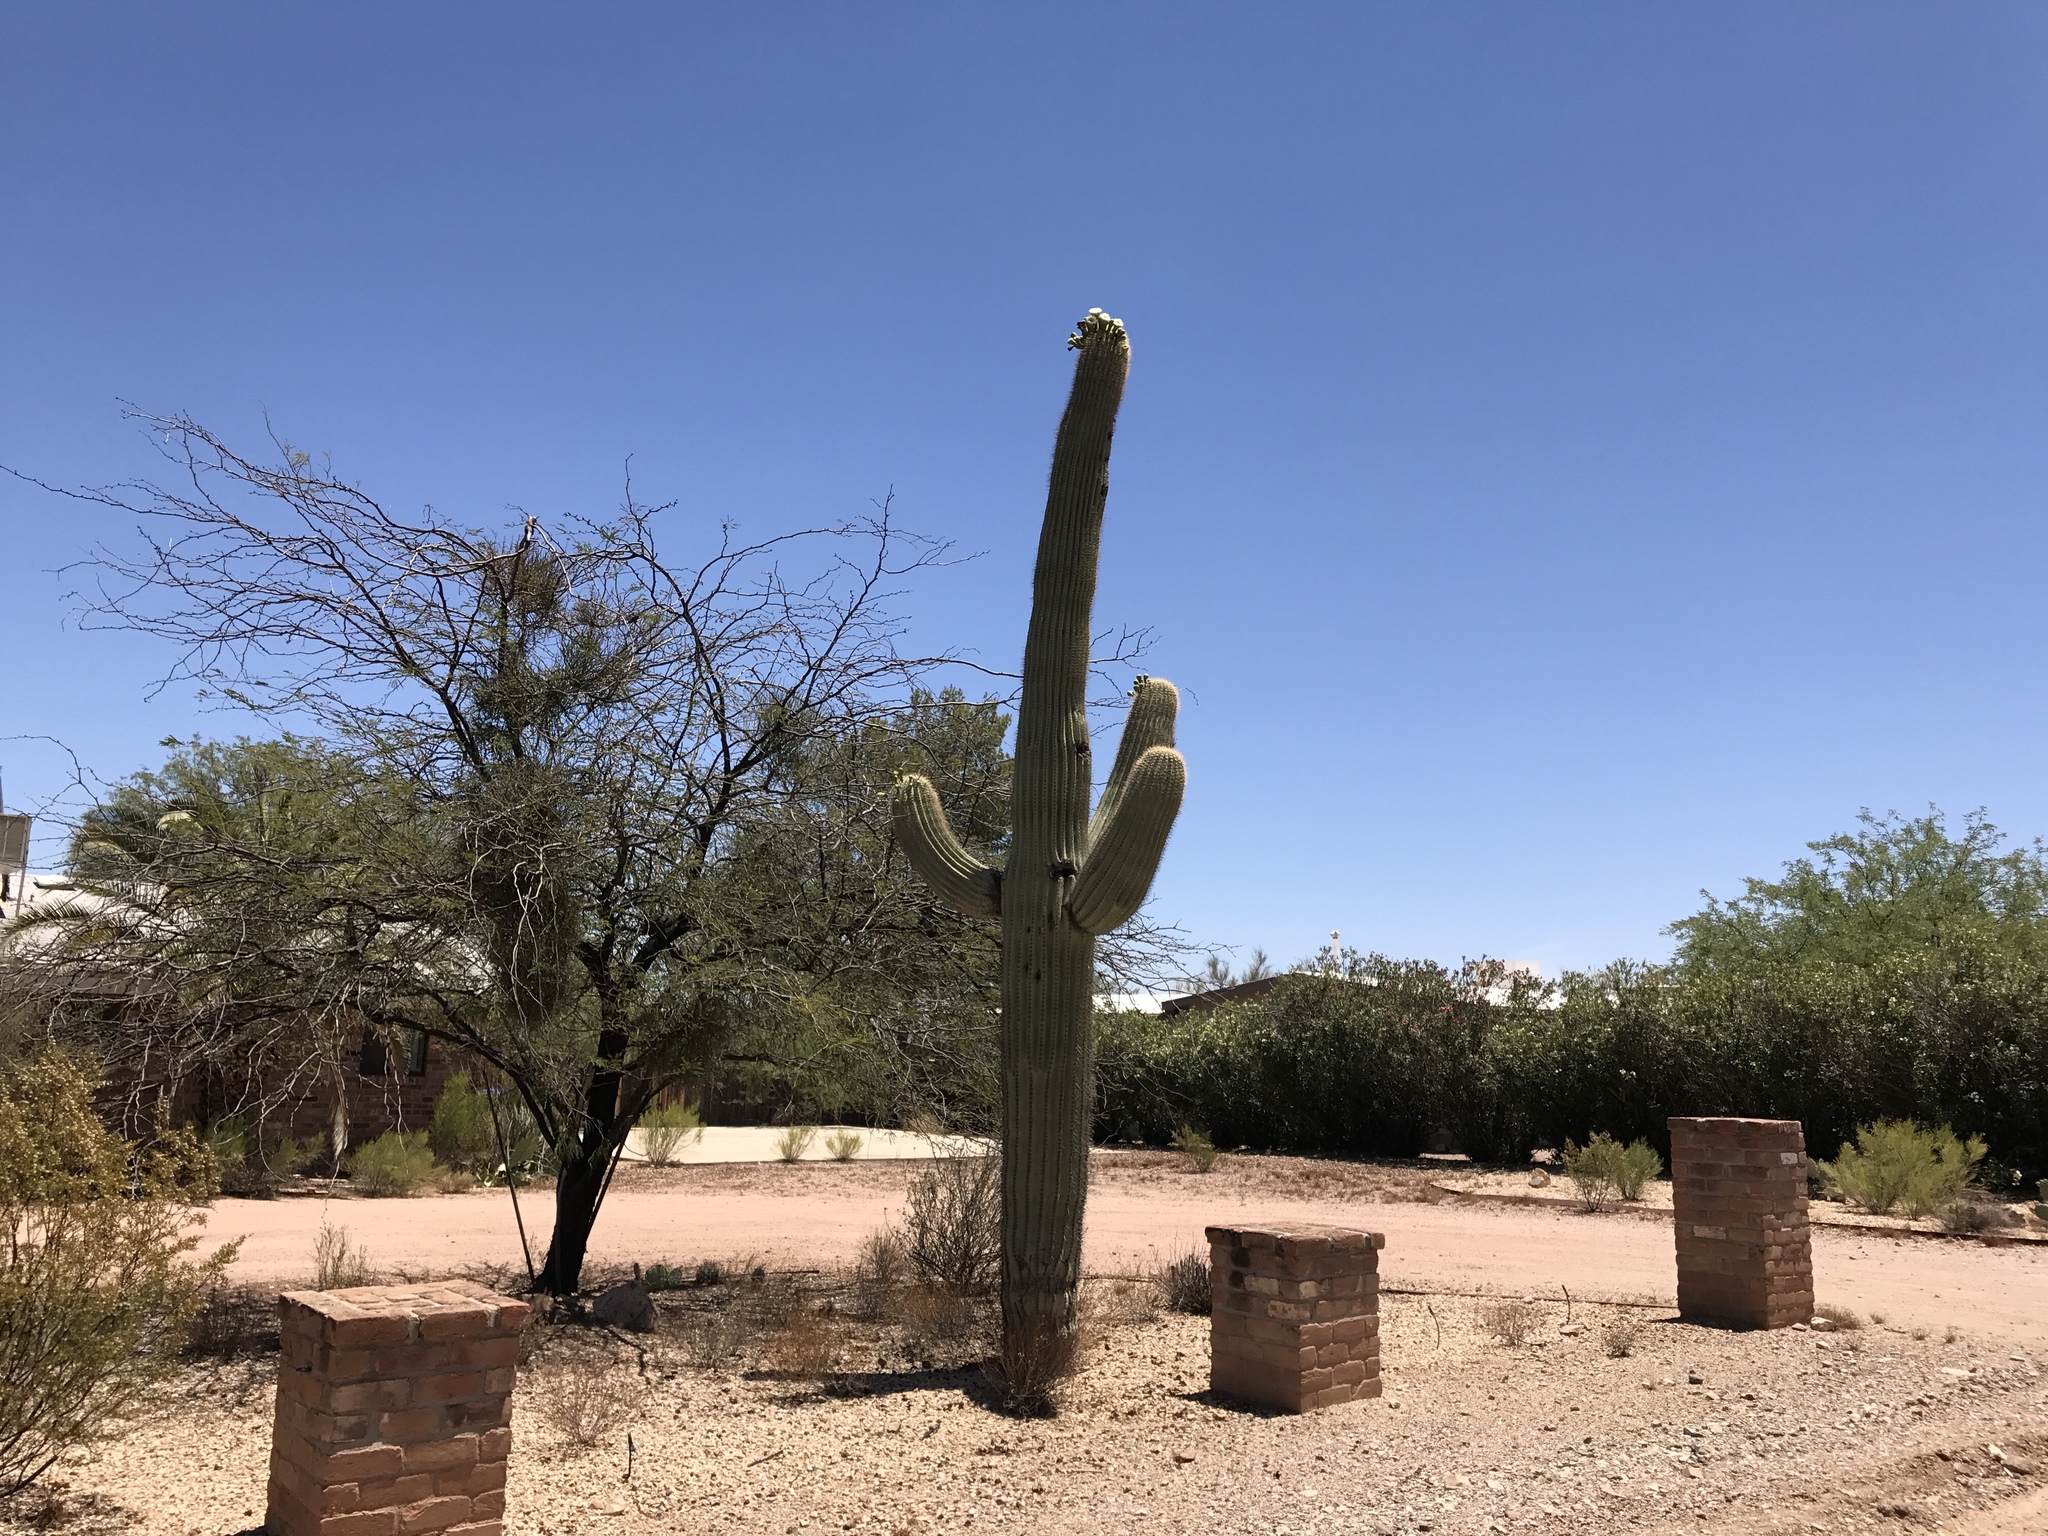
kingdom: Plantae
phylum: Tracheophyta
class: Magnoliopsida
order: Caryophyllales
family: Cactaceae
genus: Carnegiea
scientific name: Carnegiea gigantea
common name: Saguaro
